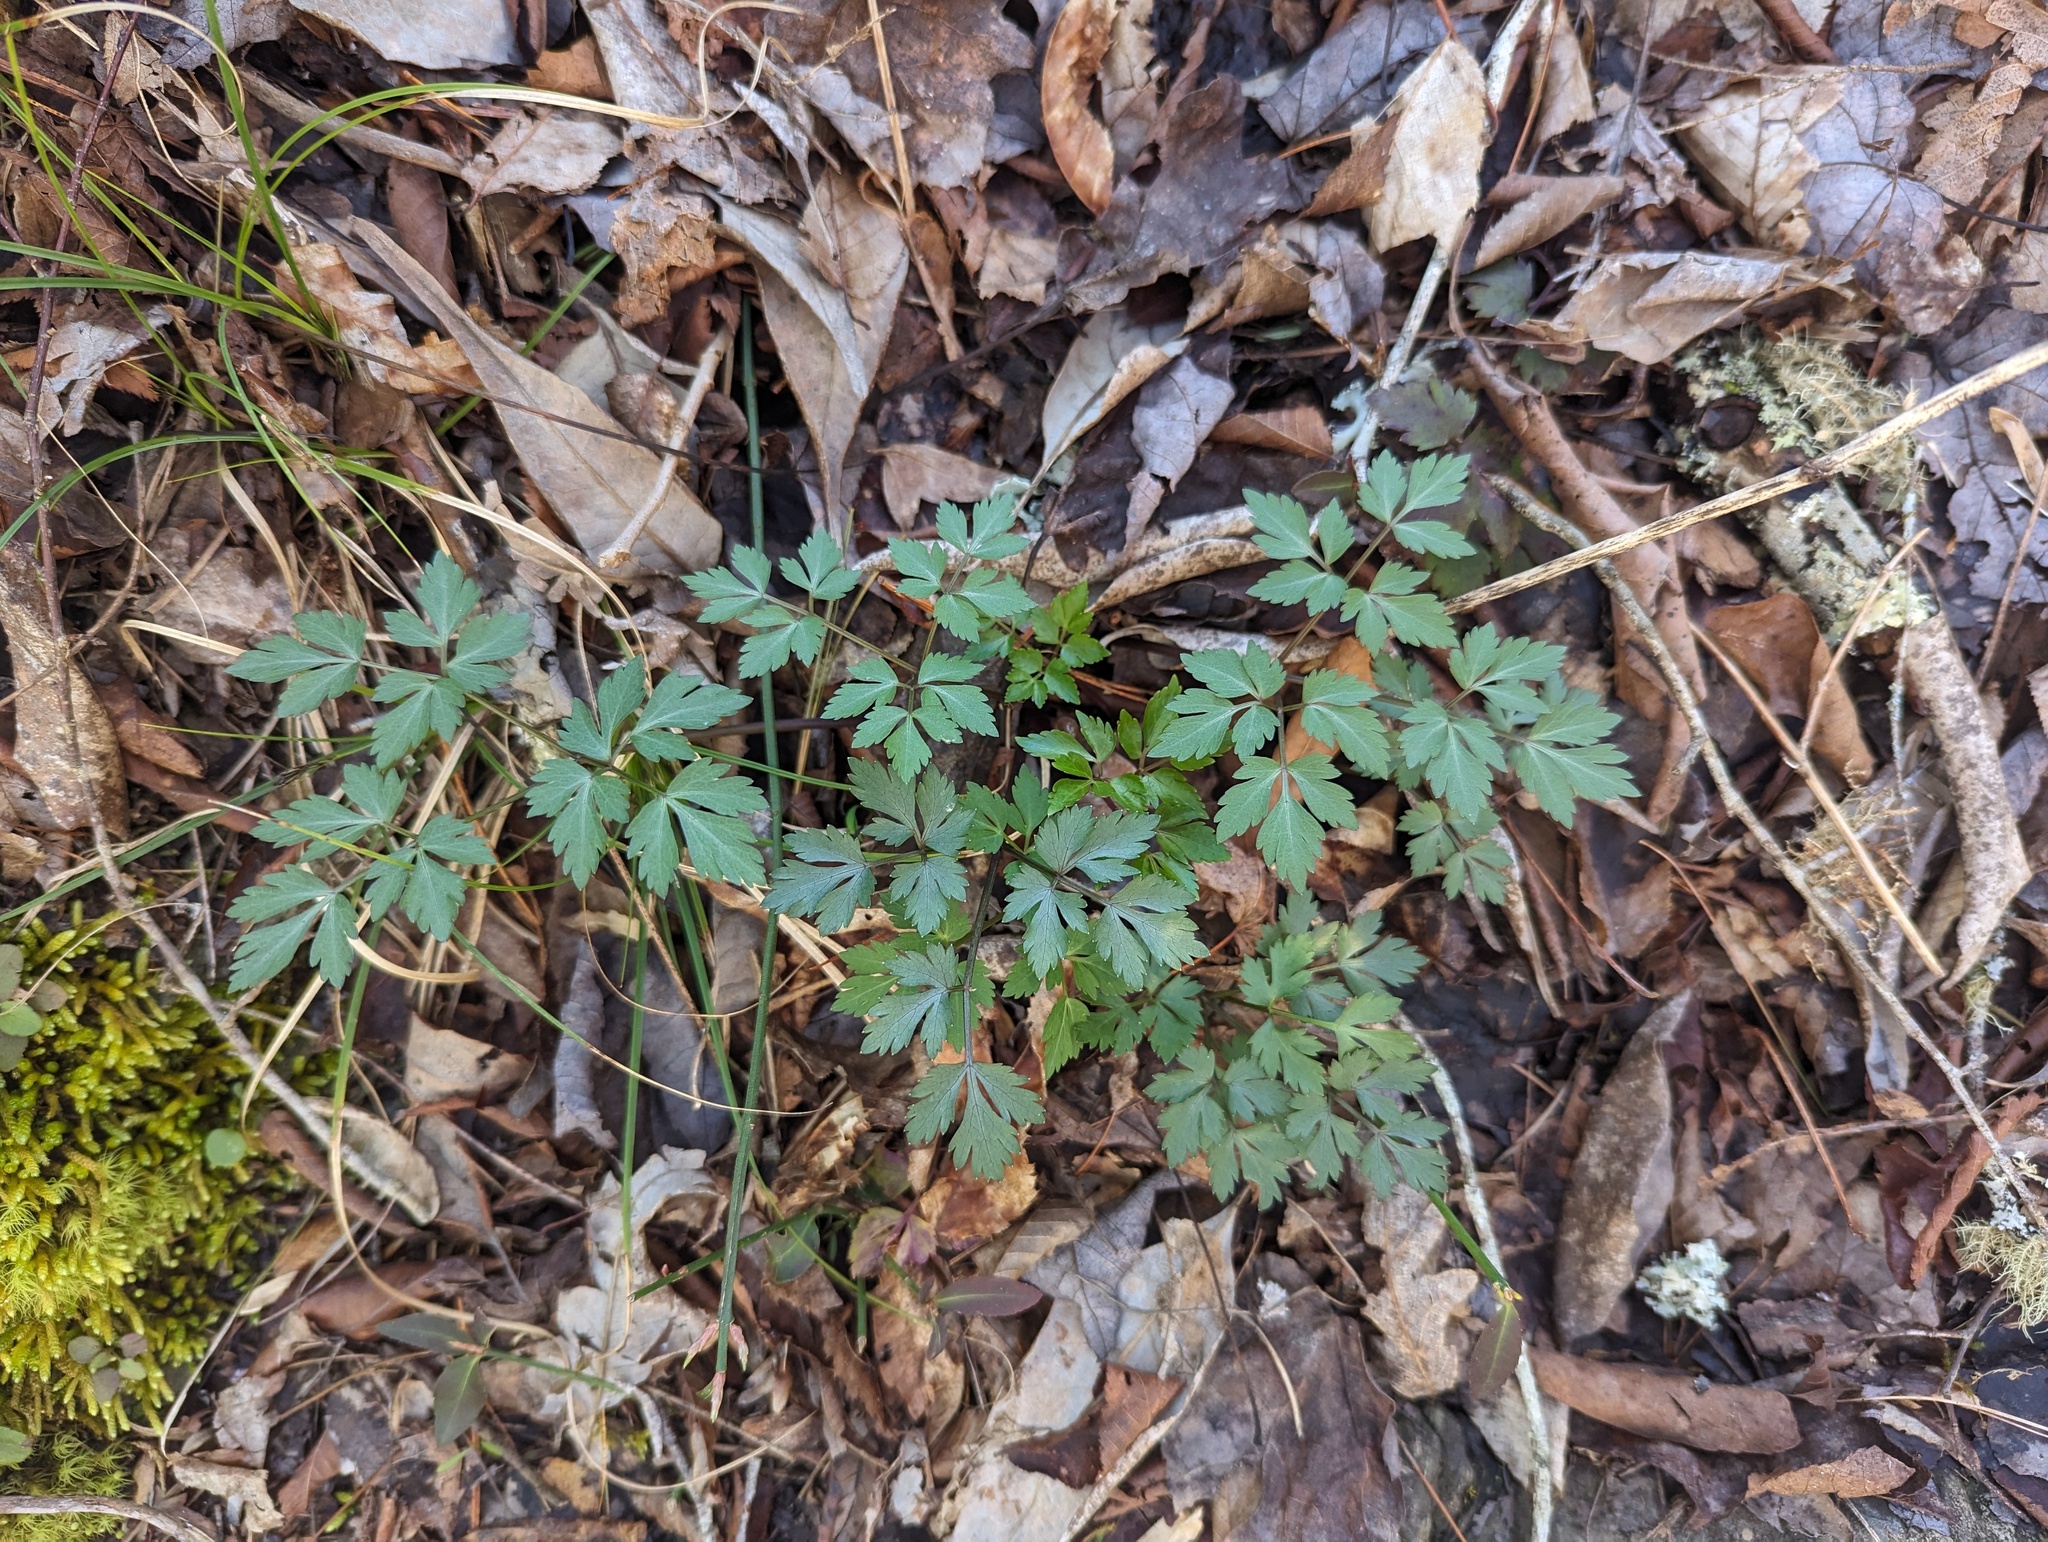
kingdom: Plantae
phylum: Tracheophyta
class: Magnoliopsida
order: Ranunculales
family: Ranunculaceae
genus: Xanthorhiza
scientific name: Xanthorhiza simplicissima
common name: Yellowroot
